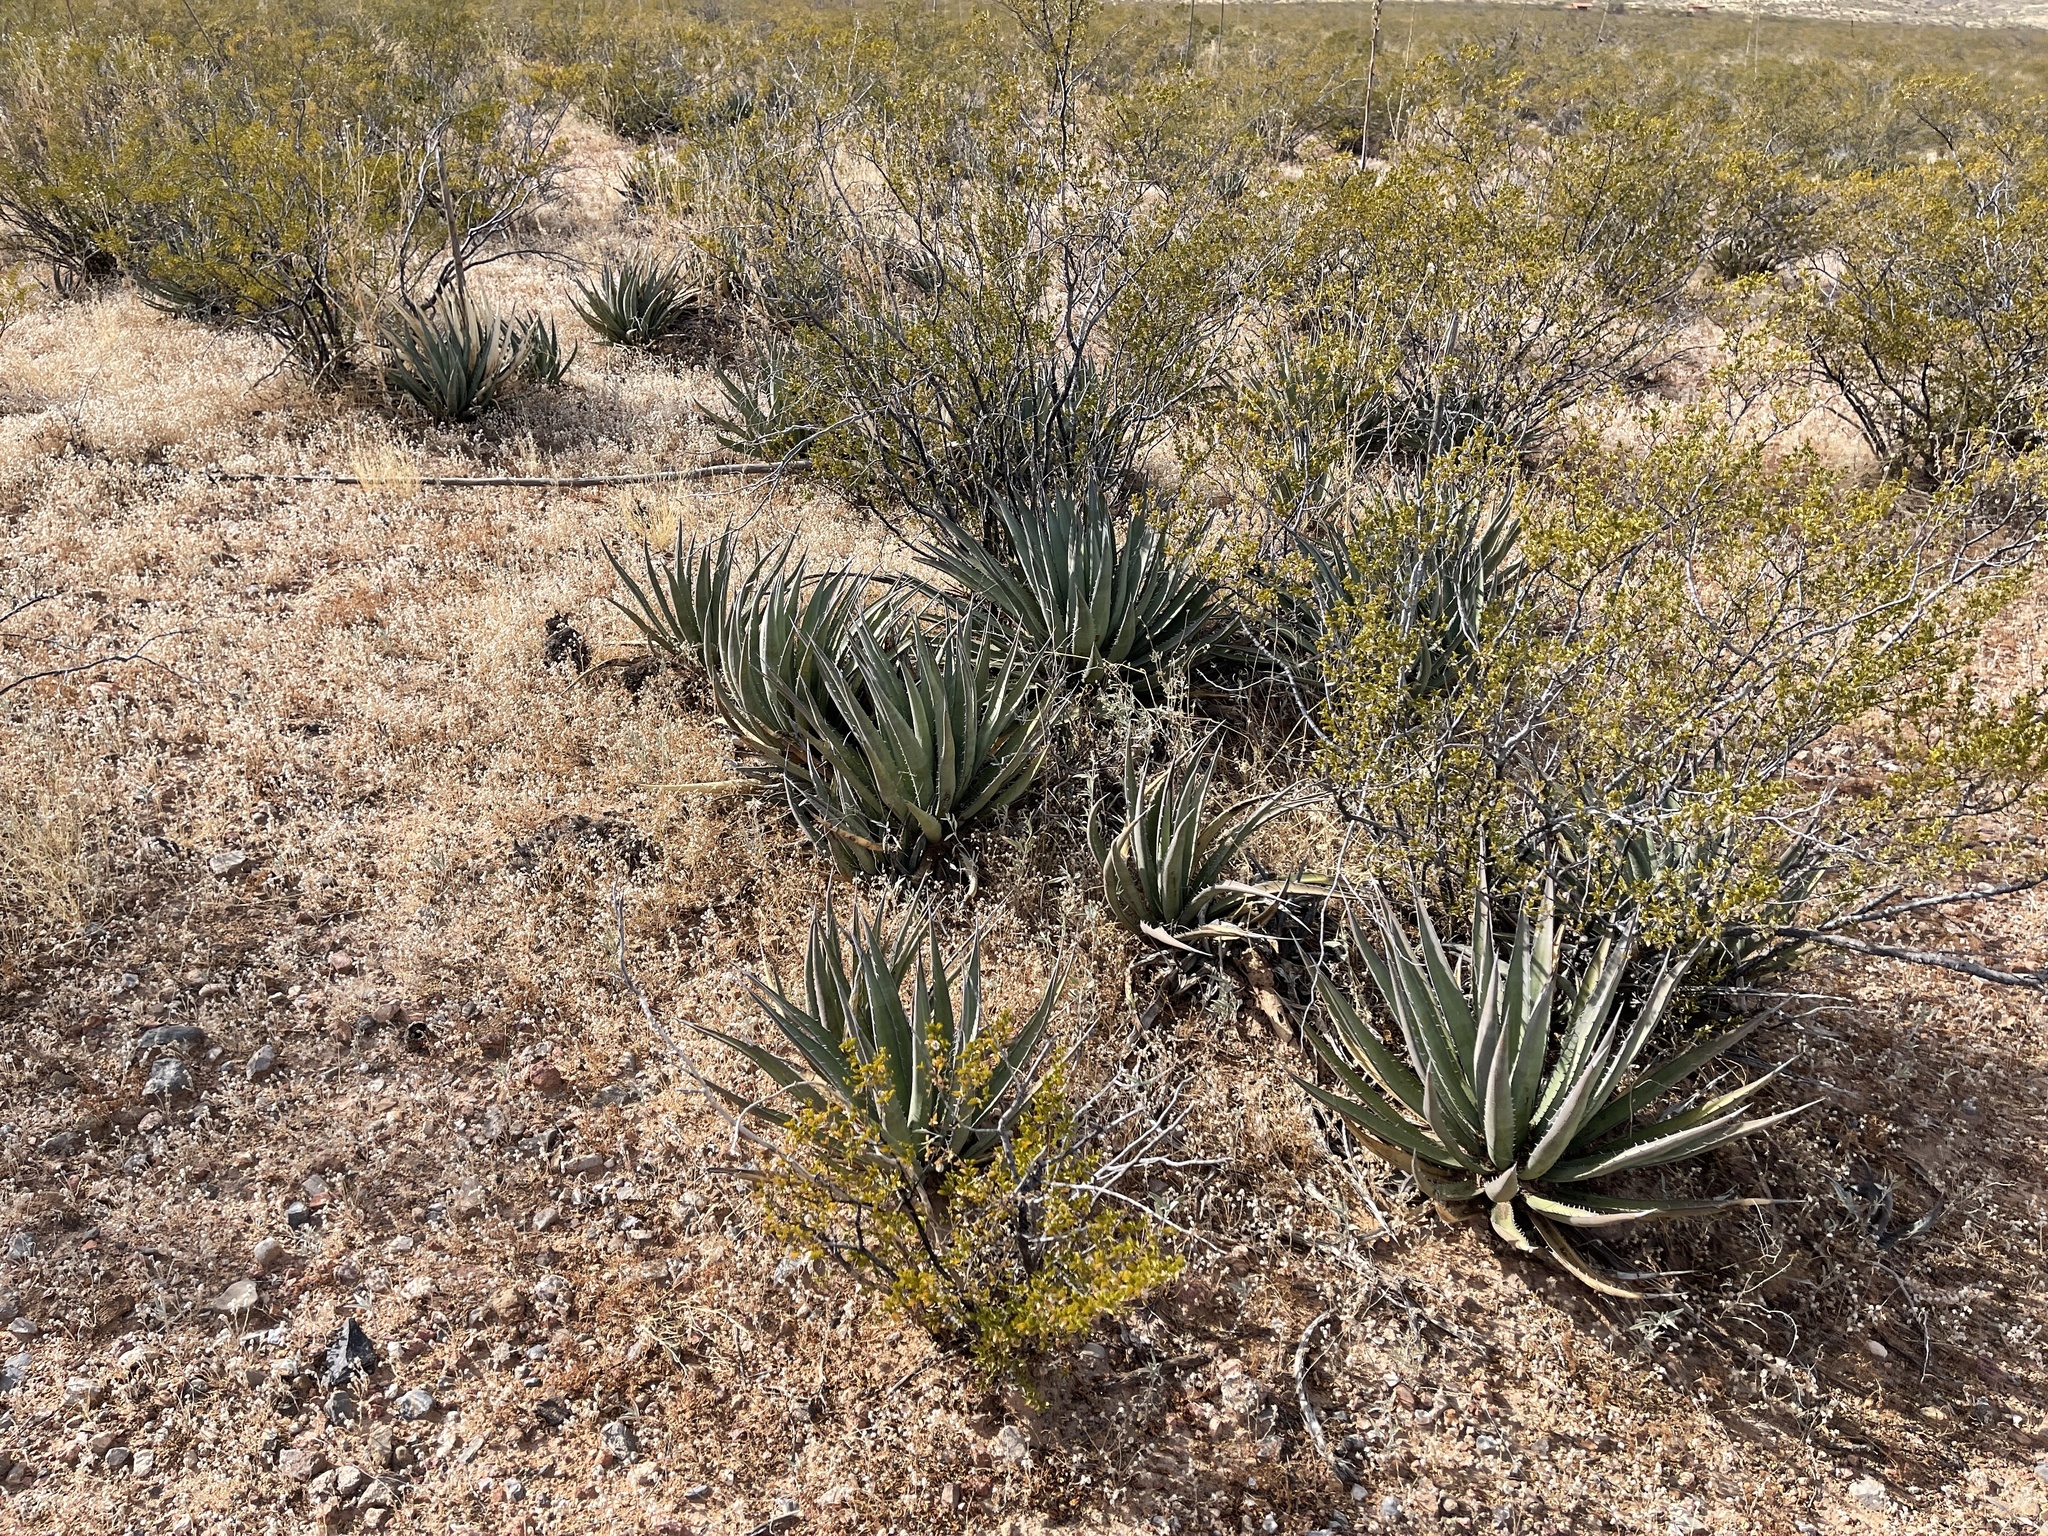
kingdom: Plantae
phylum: Tracheophyta
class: Liliopsida
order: Asparagales
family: Asparagaceae
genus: Agave
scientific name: Agave lechuguilla
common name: Lecheguilla agave
